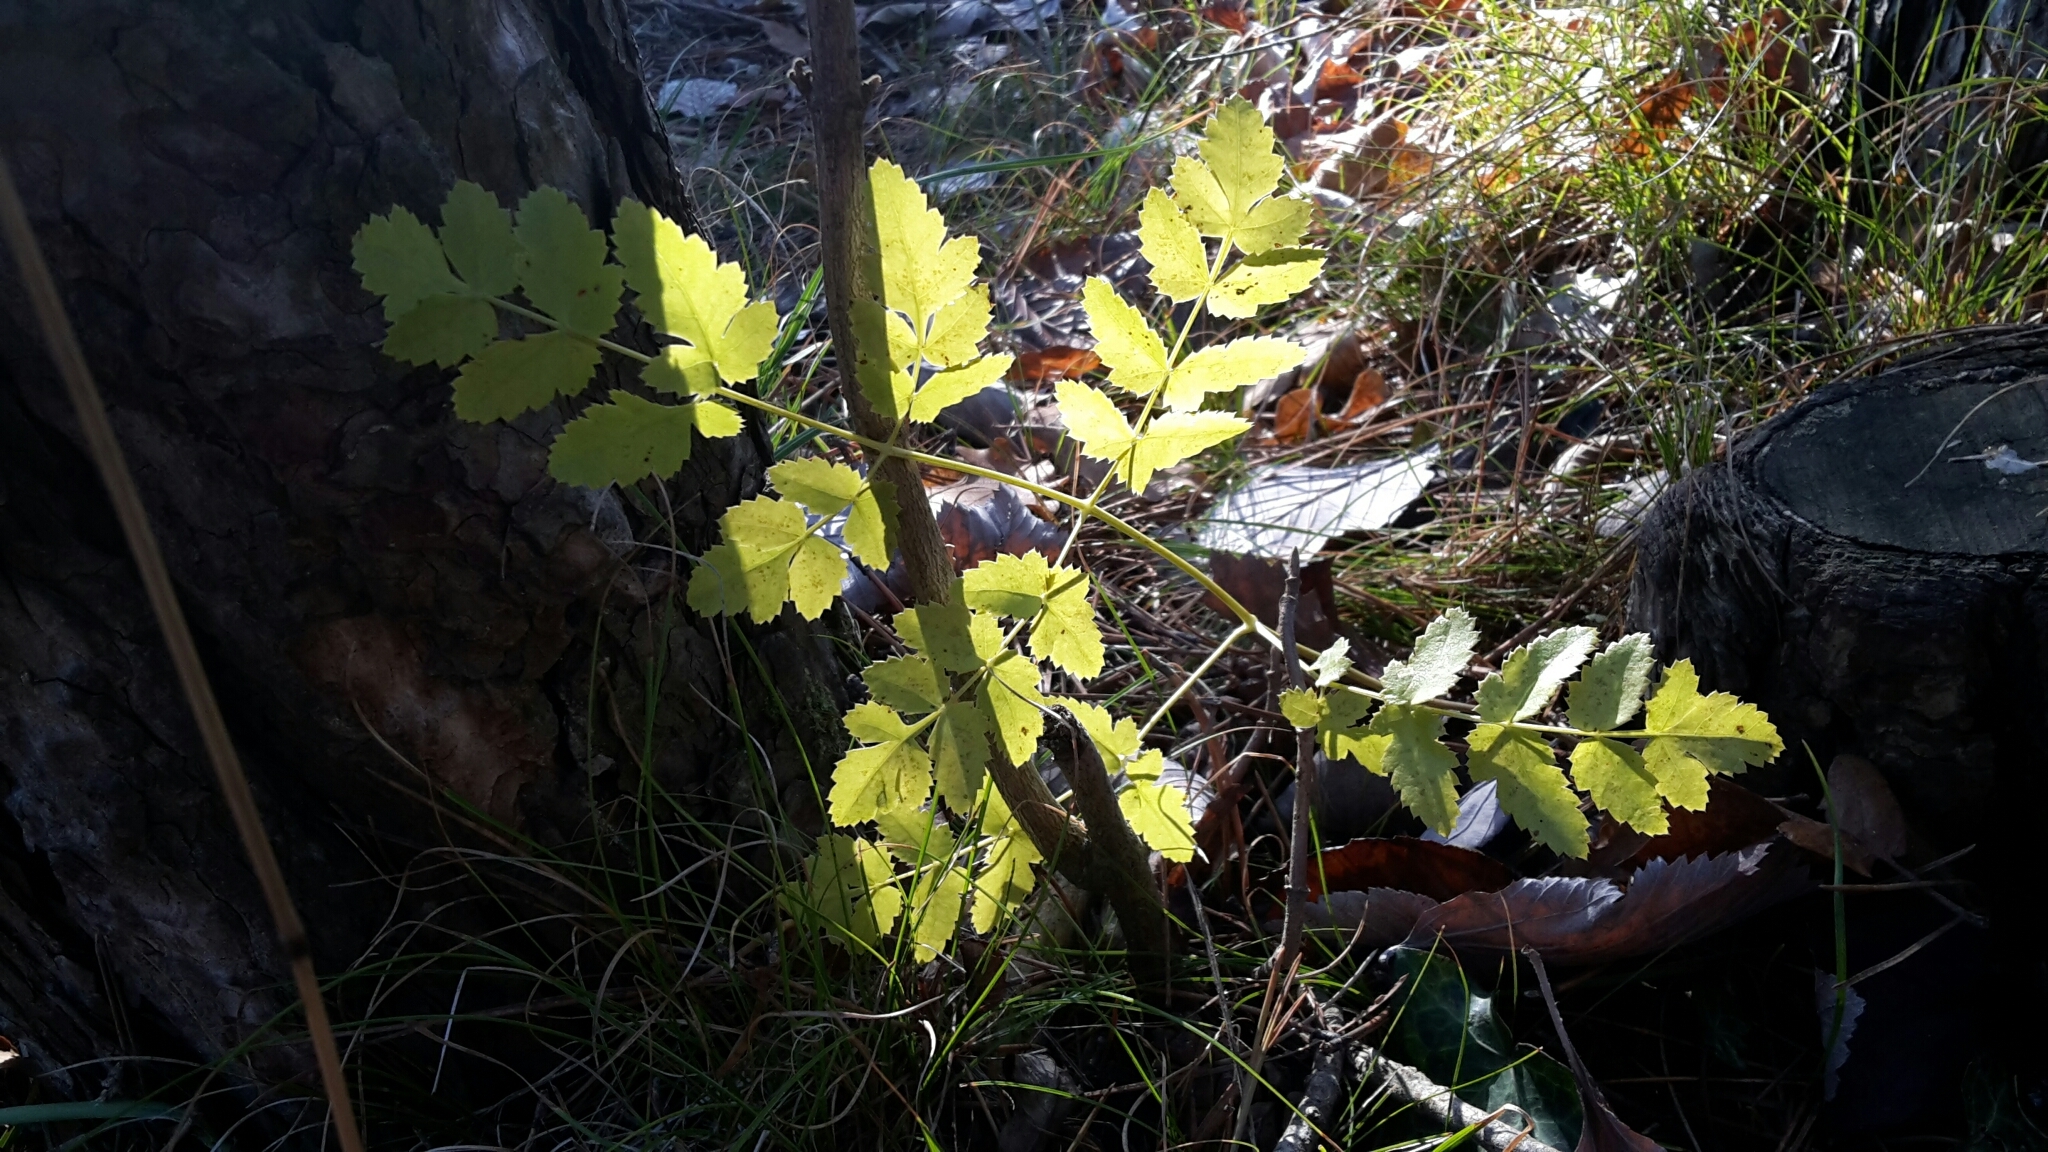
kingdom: Plantae
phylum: Tracheophyta
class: Magnoliopsida
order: Apiales
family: Apiaceae
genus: Cervaria
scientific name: Cervaria rivini
